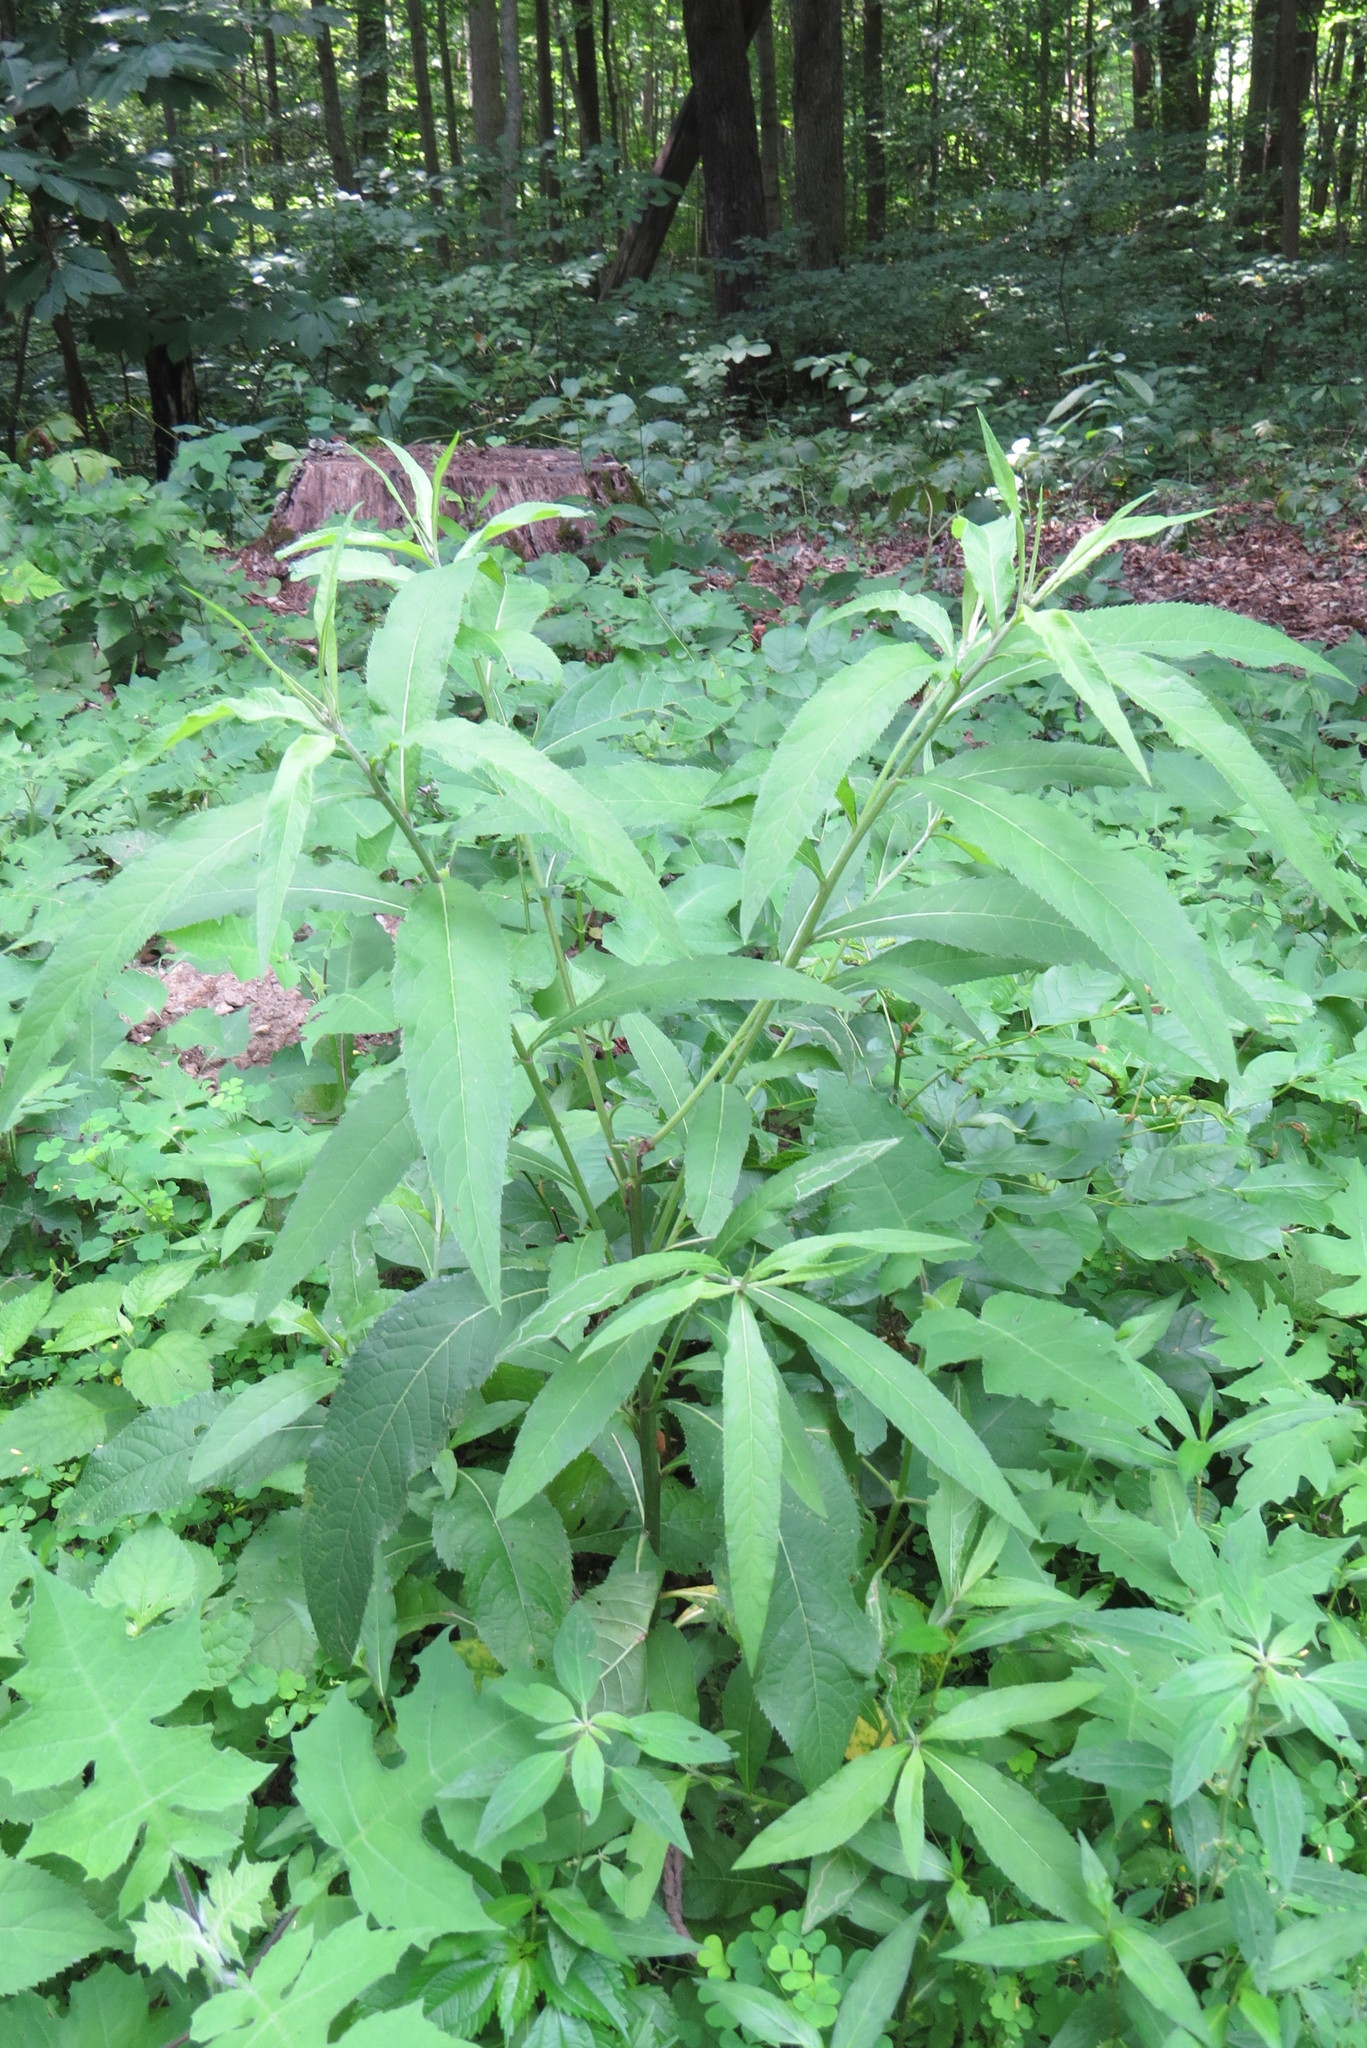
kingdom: Plantae
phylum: Tracheophyta
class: Magnoliopsida
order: Asterales
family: Asteraceae
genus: Verbesina
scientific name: Verbesina alternifolia
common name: Wingstem
